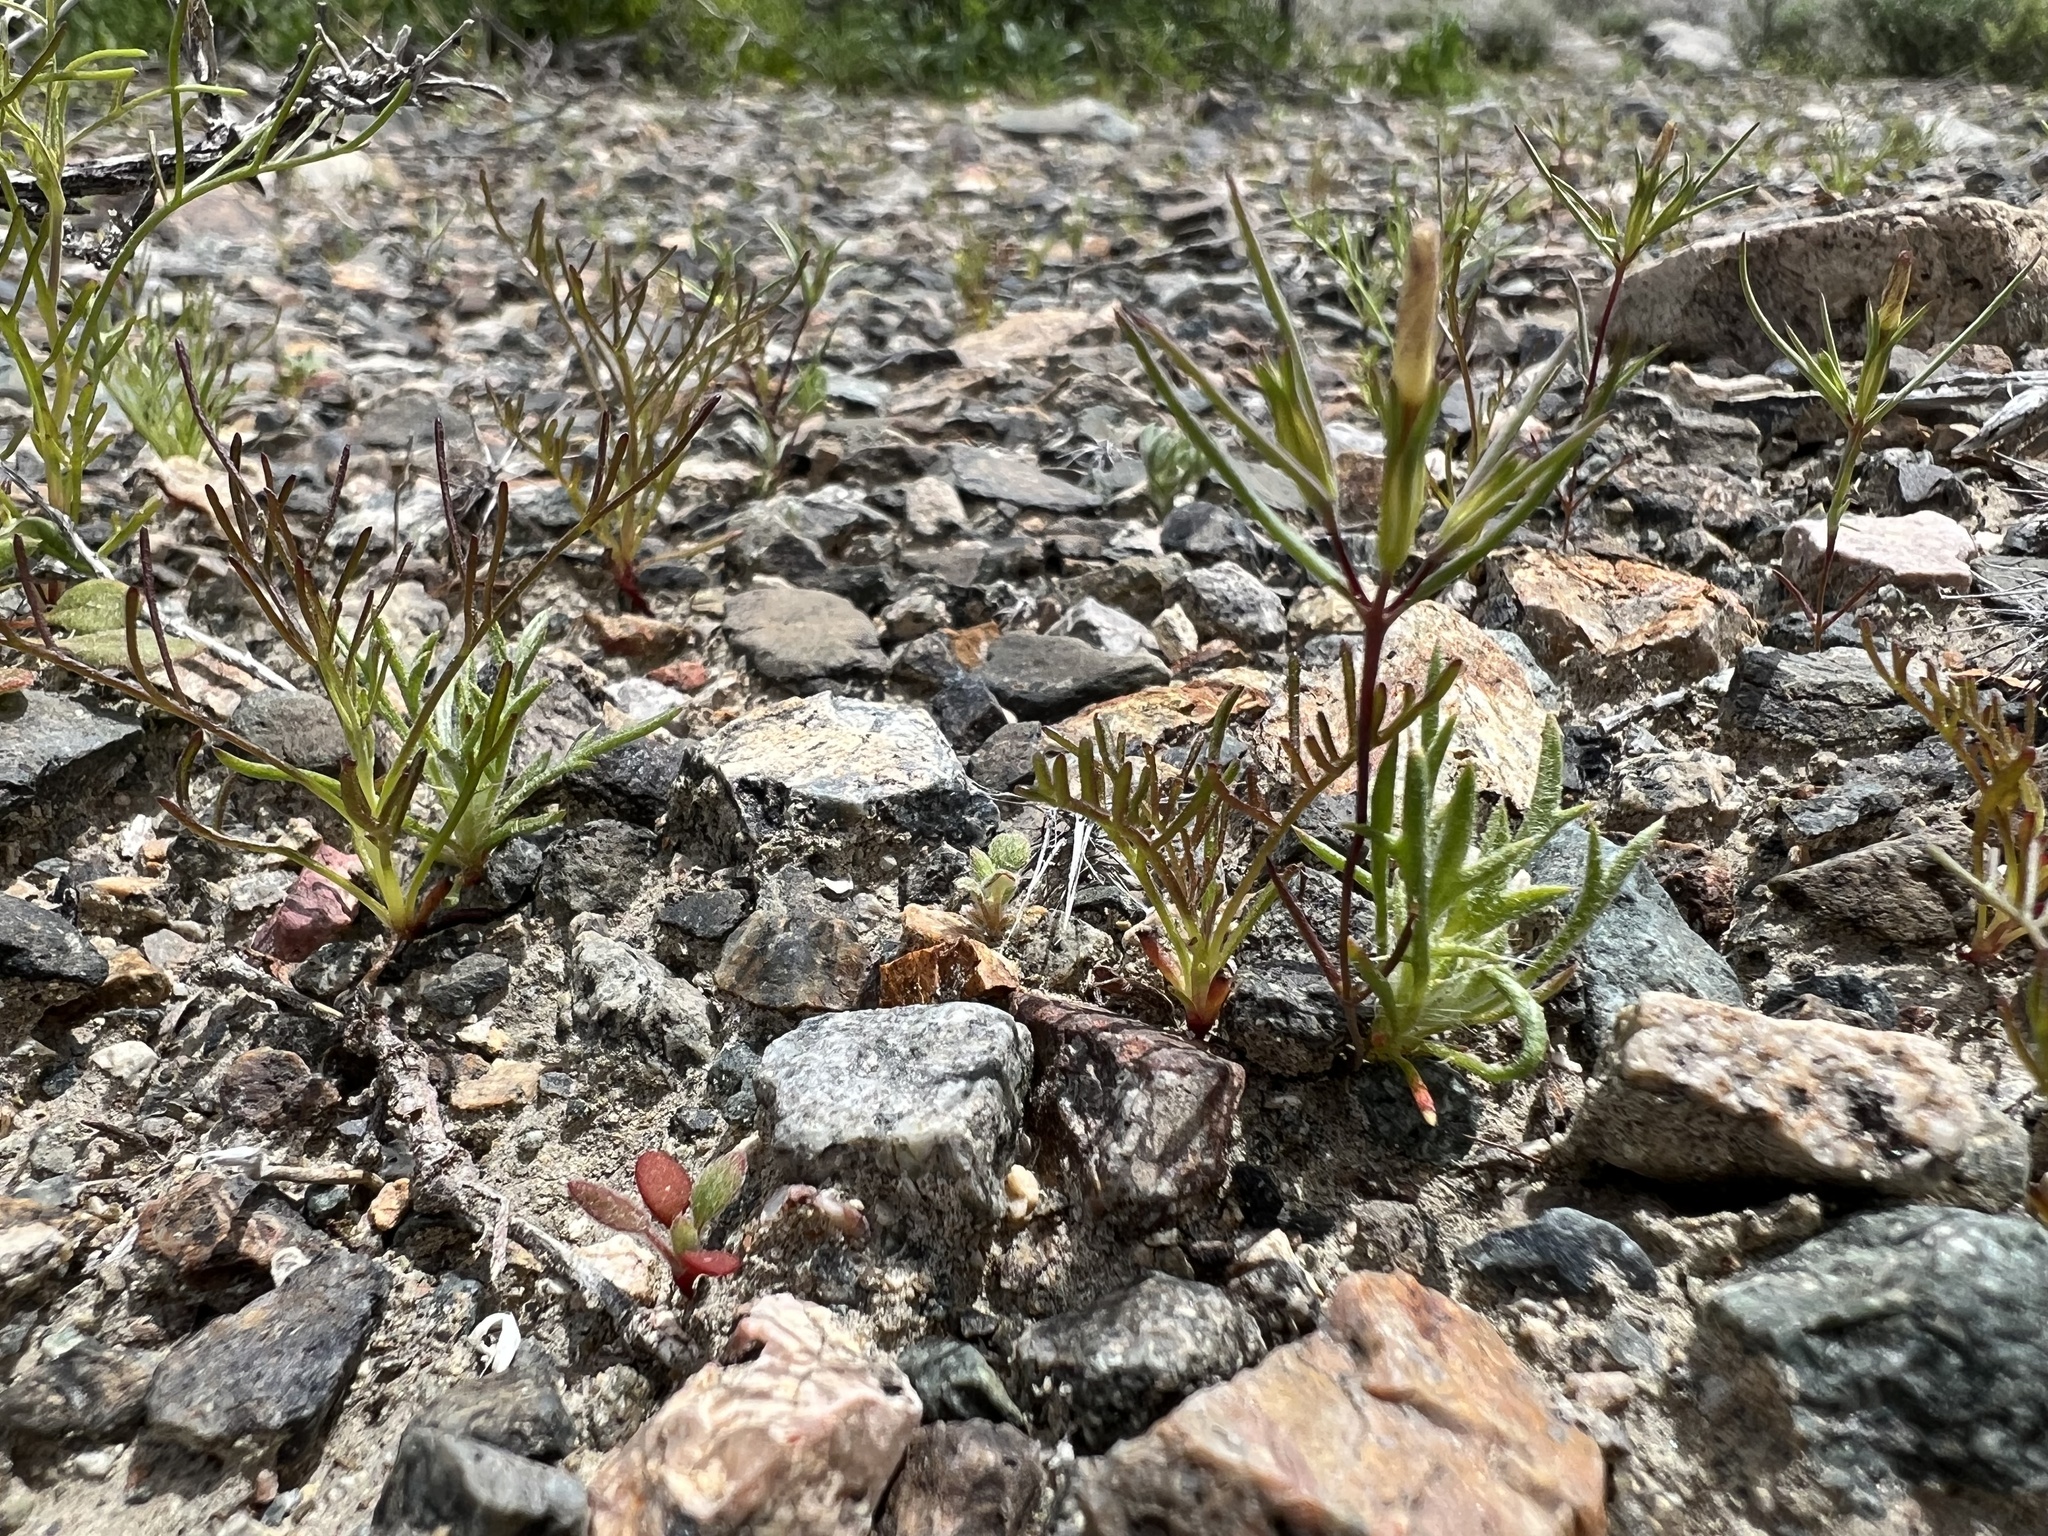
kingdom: Plantae
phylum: Tracheophyta
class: Magnoliopsida
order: Ericales
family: Polemoniaceae
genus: Linanthus
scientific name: Linanthus dichotomus
